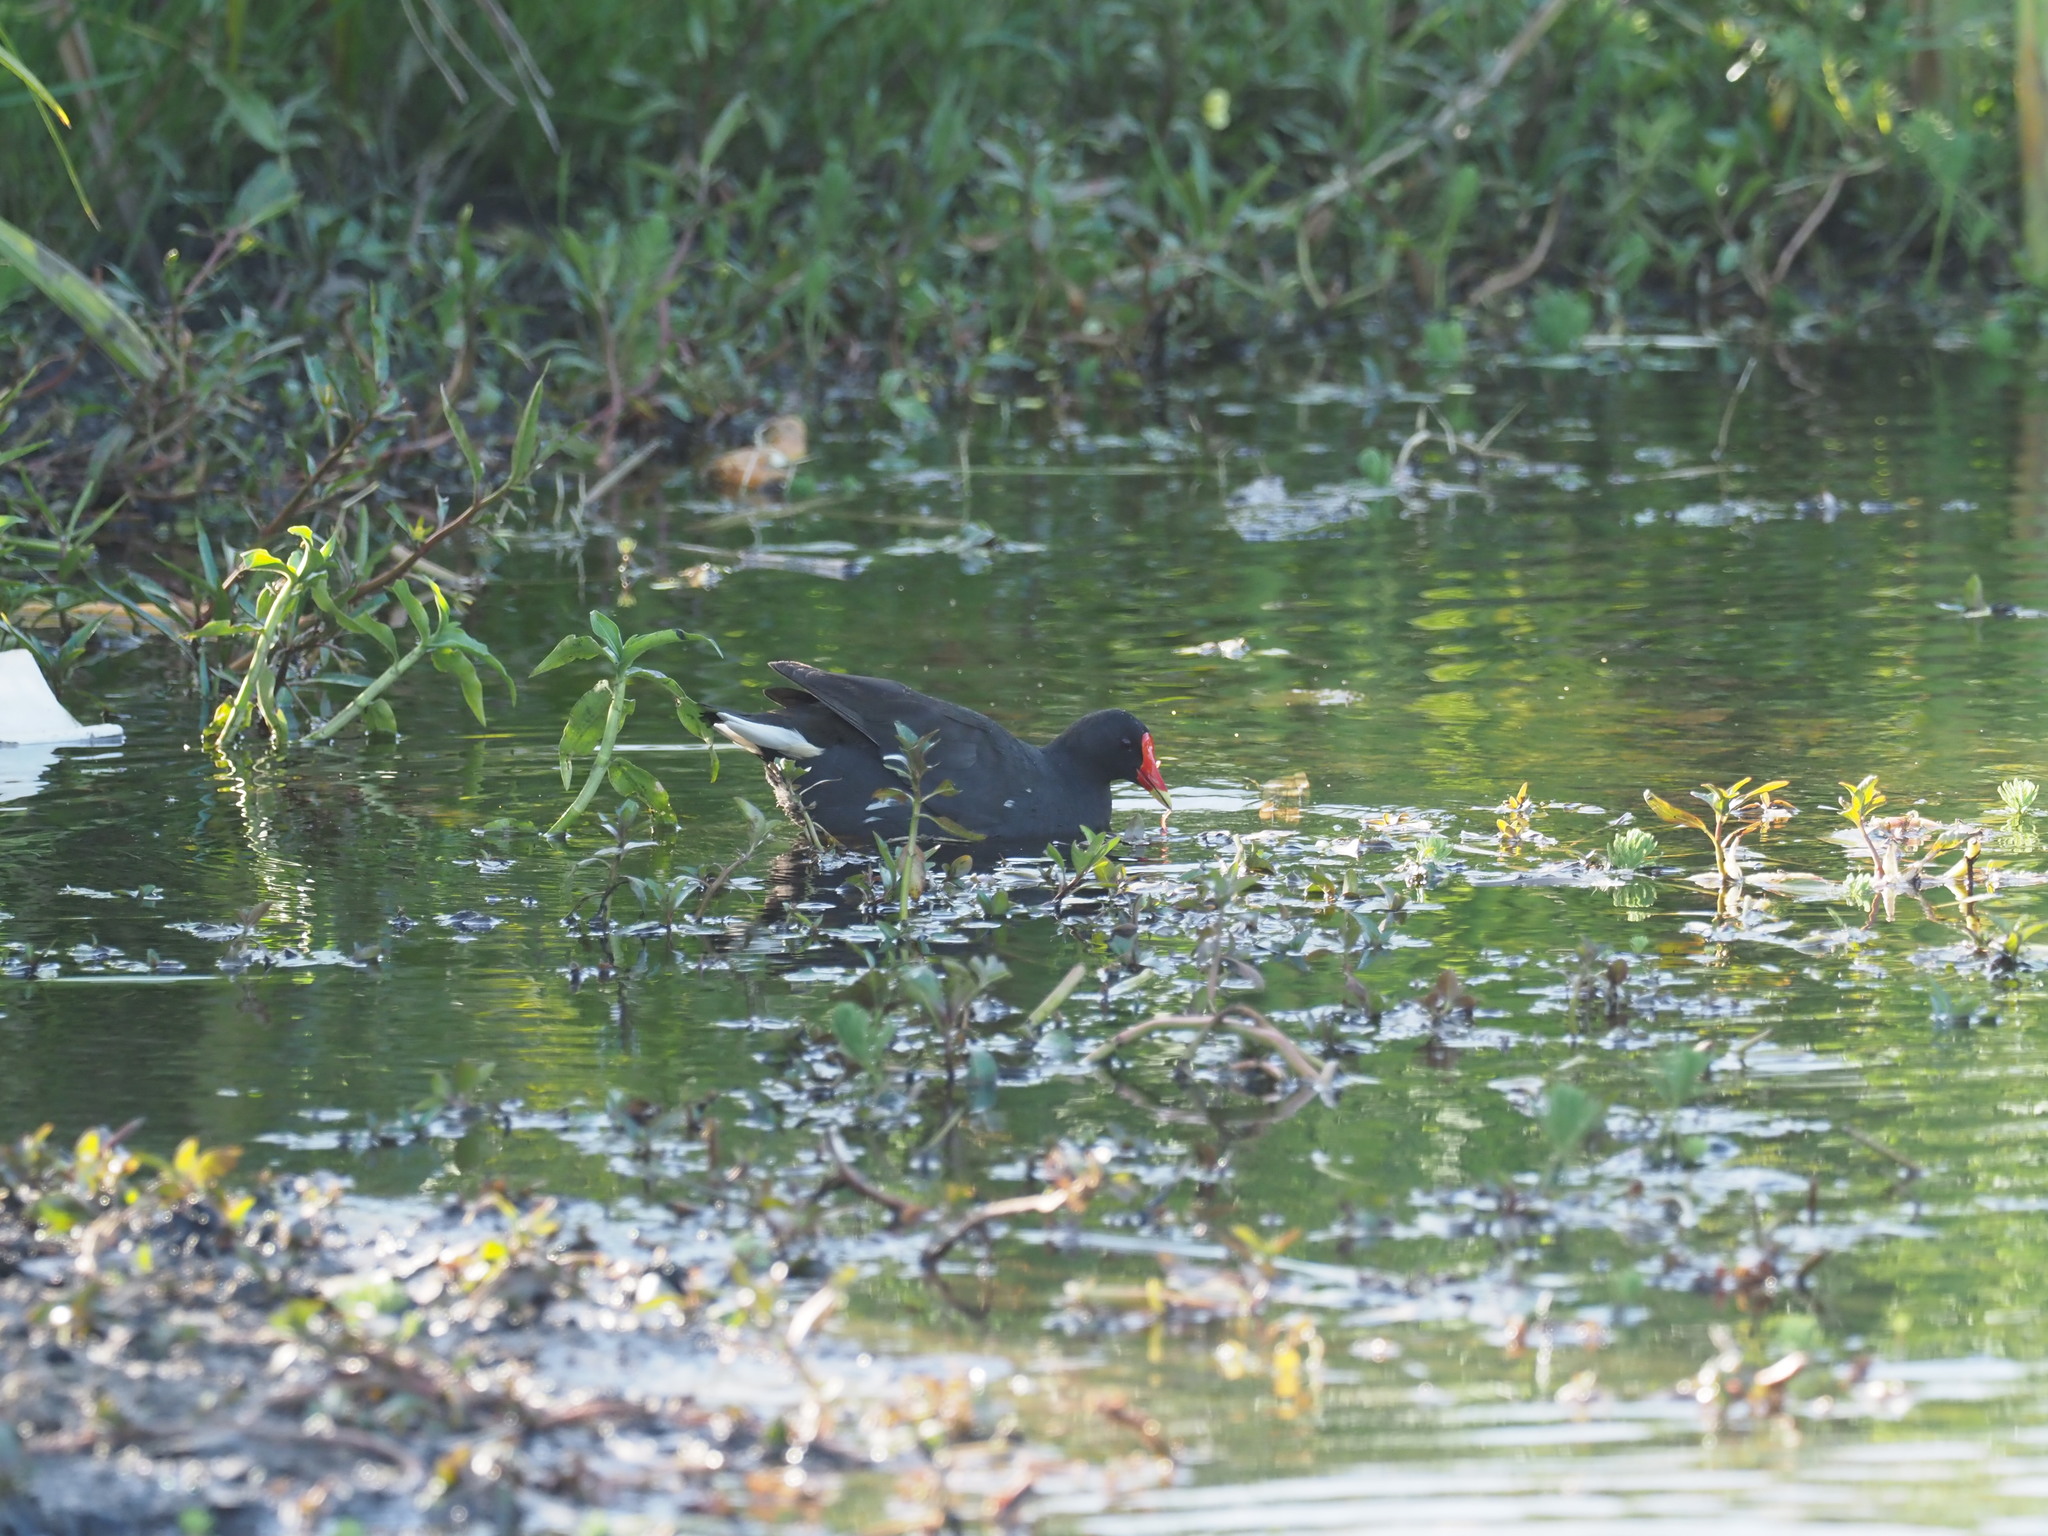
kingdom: Animalia
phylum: Chordata
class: Aves
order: Gruiformes
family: Rallidae
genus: Gallinula
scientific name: Gallinula chloropus
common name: Common moorhen
